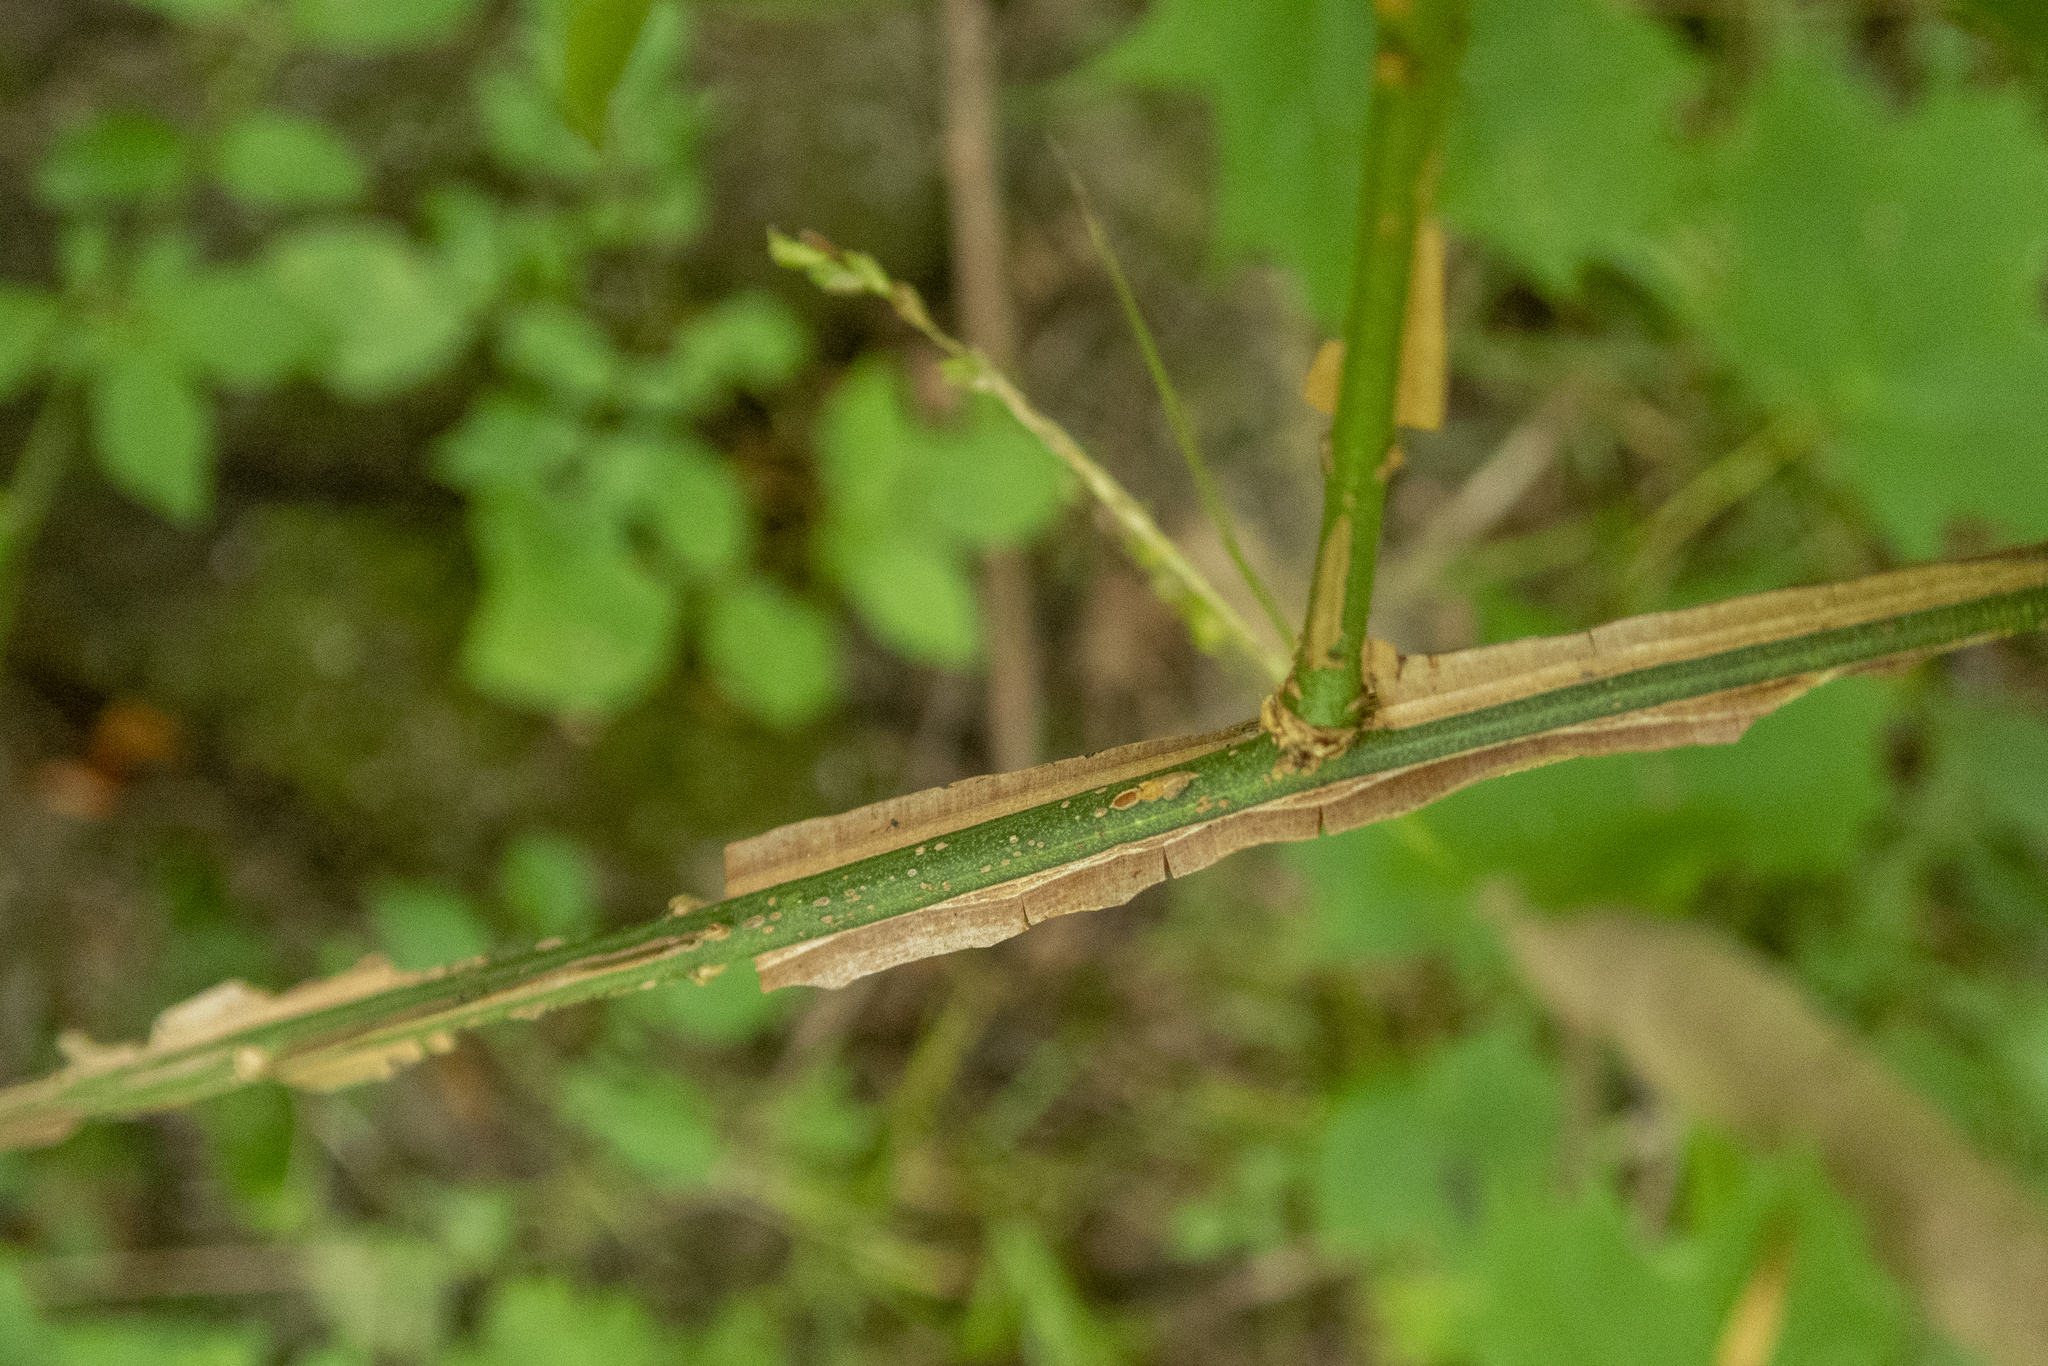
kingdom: Plantae
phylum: Tracheophyta
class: Magnoliopsida
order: Celastrales
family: Celastraceae
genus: Euonymus
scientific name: Euonymus alatus
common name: Winged euonymus
